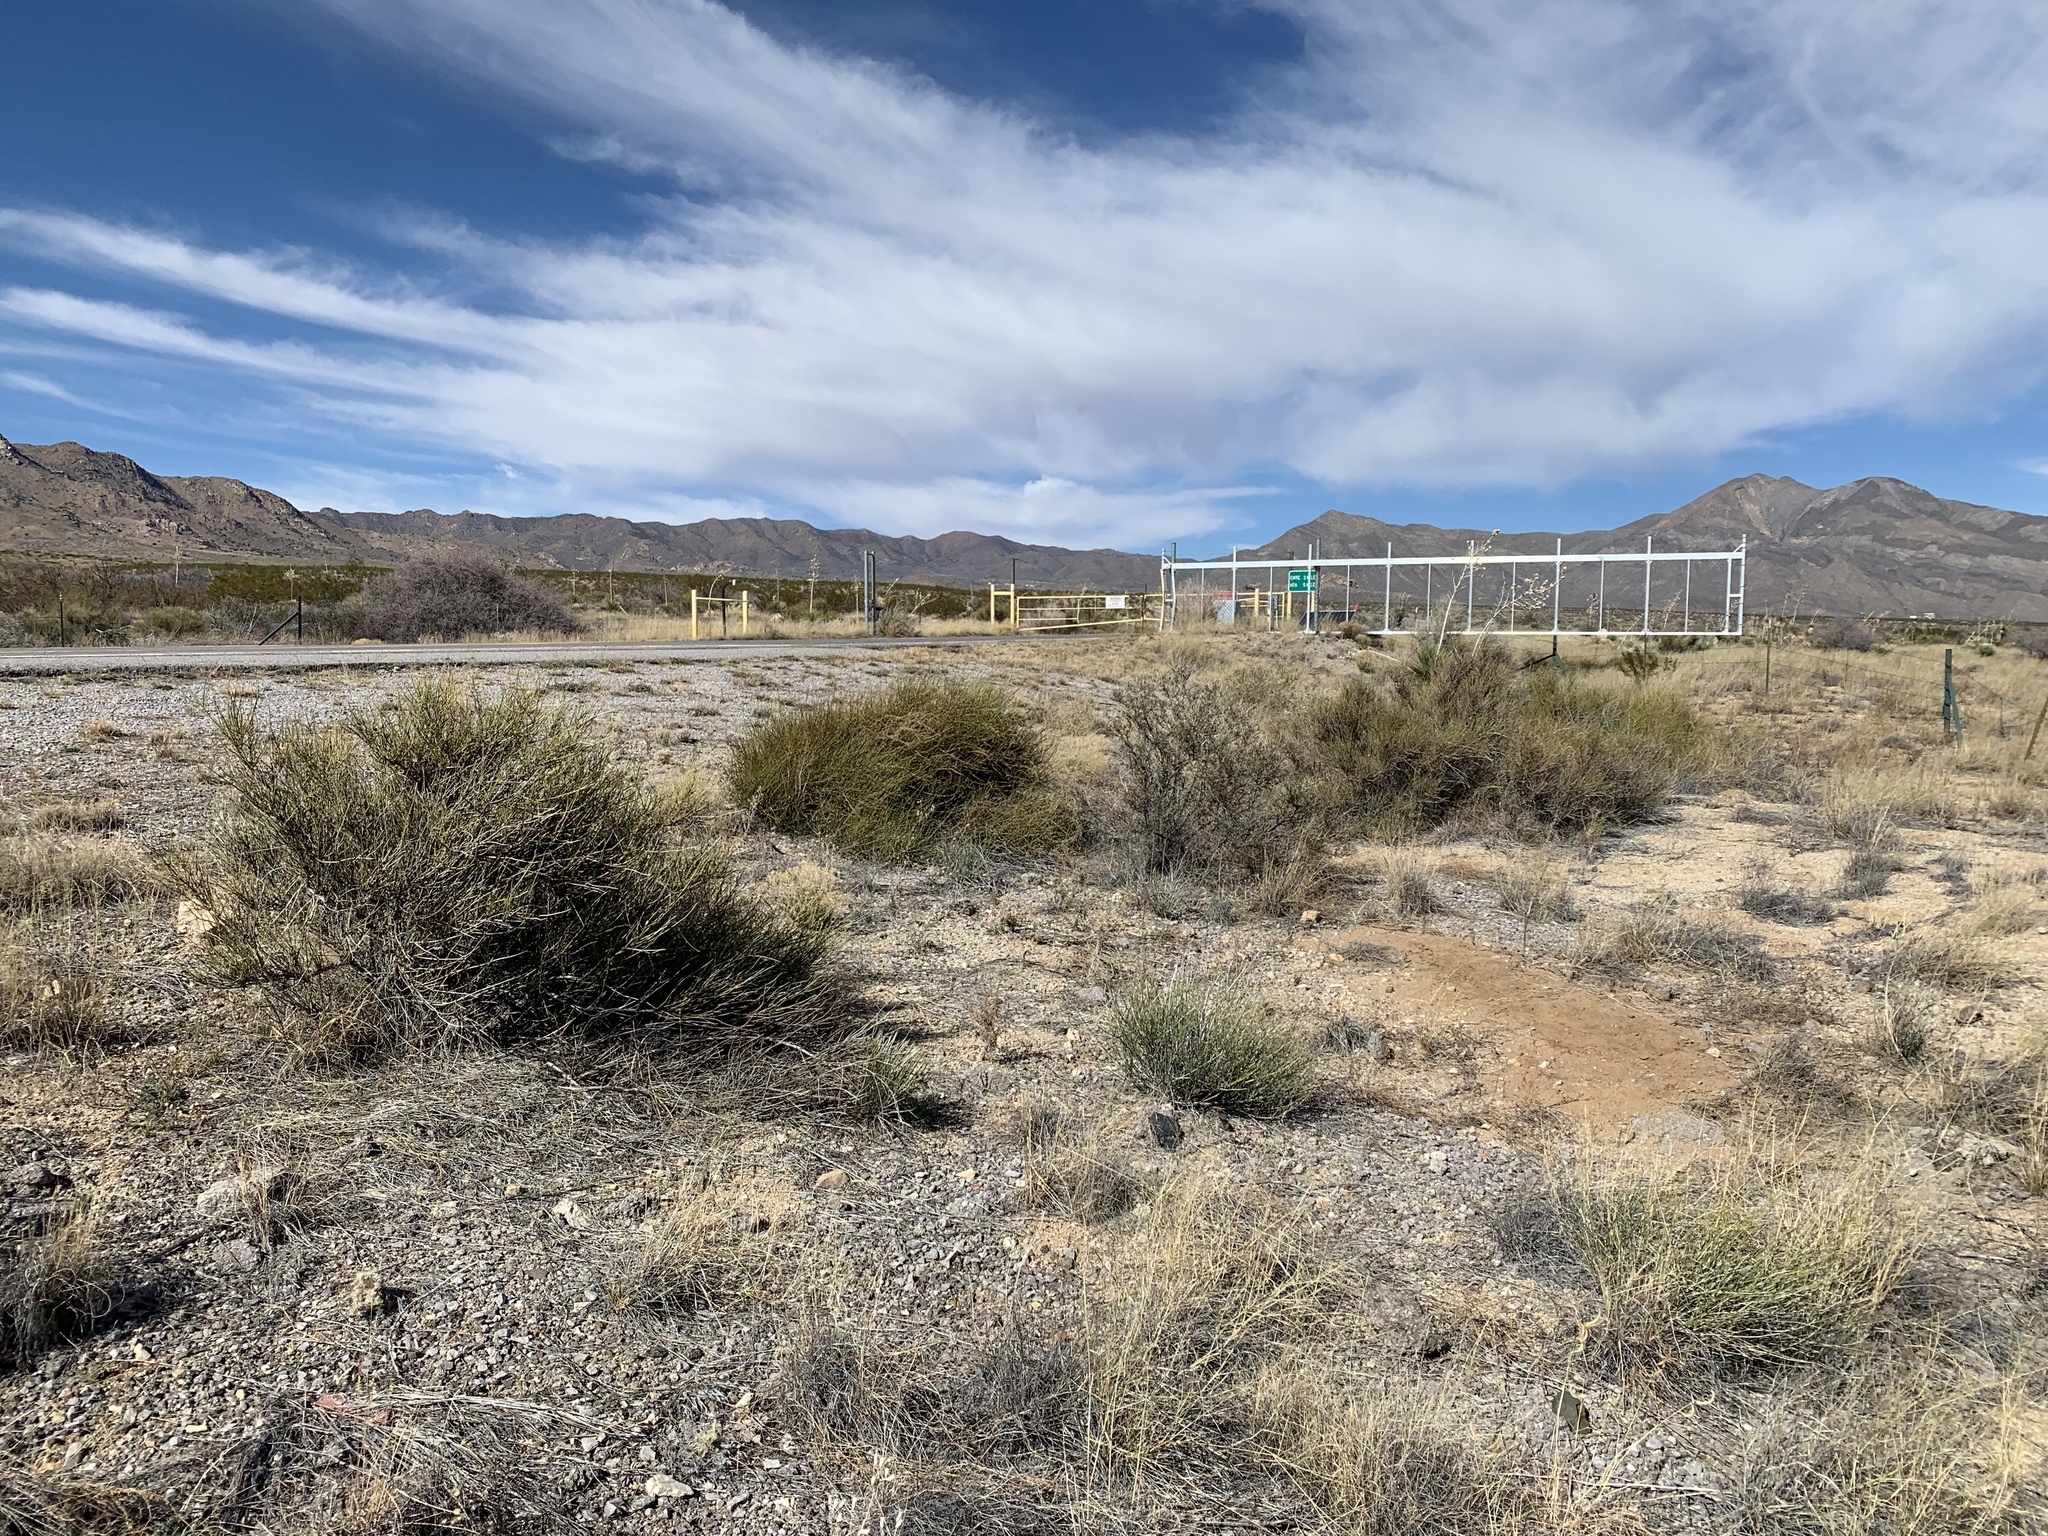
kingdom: Plantae
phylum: Tracheophyta
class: Gnetopsida
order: Ephedrales
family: Ephedraceae
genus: Ephedra
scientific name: Ephedra trifurca
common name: Mexican-tea
